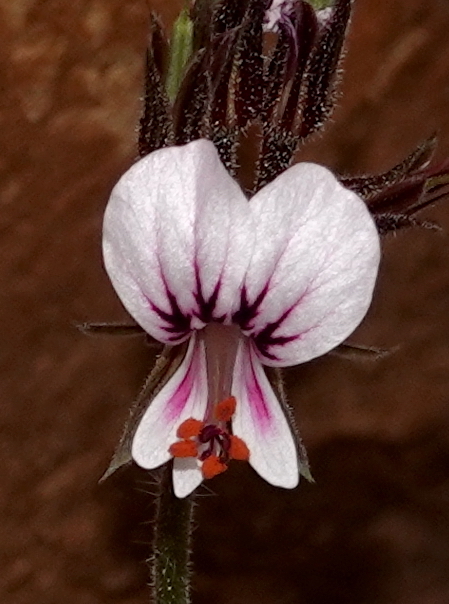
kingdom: Plantae
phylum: Tracheophyta
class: Magnoliopsida
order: Geraniales
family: Geraniaceae
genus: Pelargonium
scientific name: Pelargonium myrrhifolium
